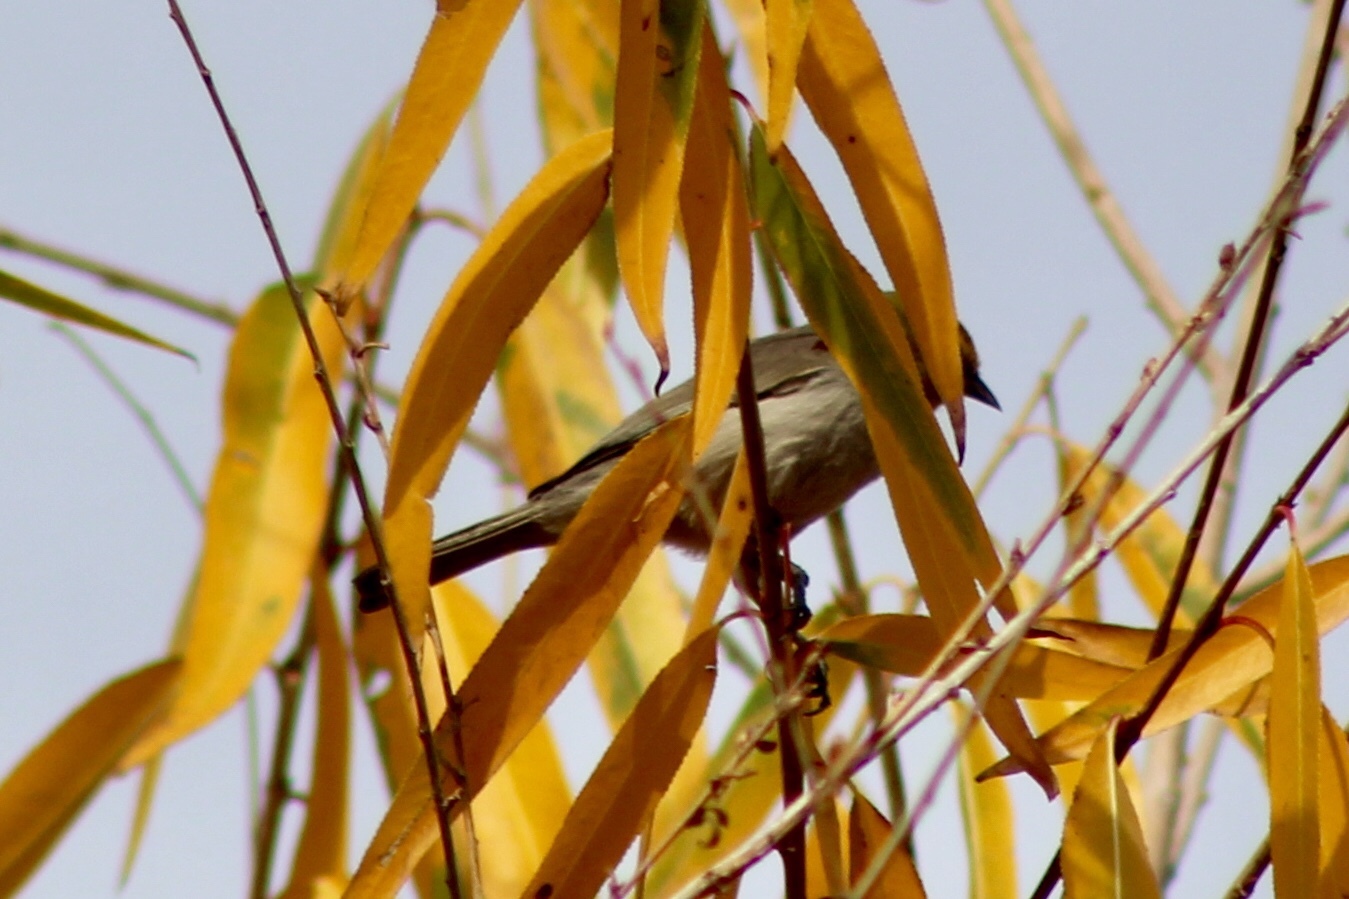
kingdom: Animalia
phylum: Chordata
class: Aves
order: Passeriformes
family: Remizidae
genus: Auriparus
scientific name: Auriparus flaviceps
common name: Verdin
